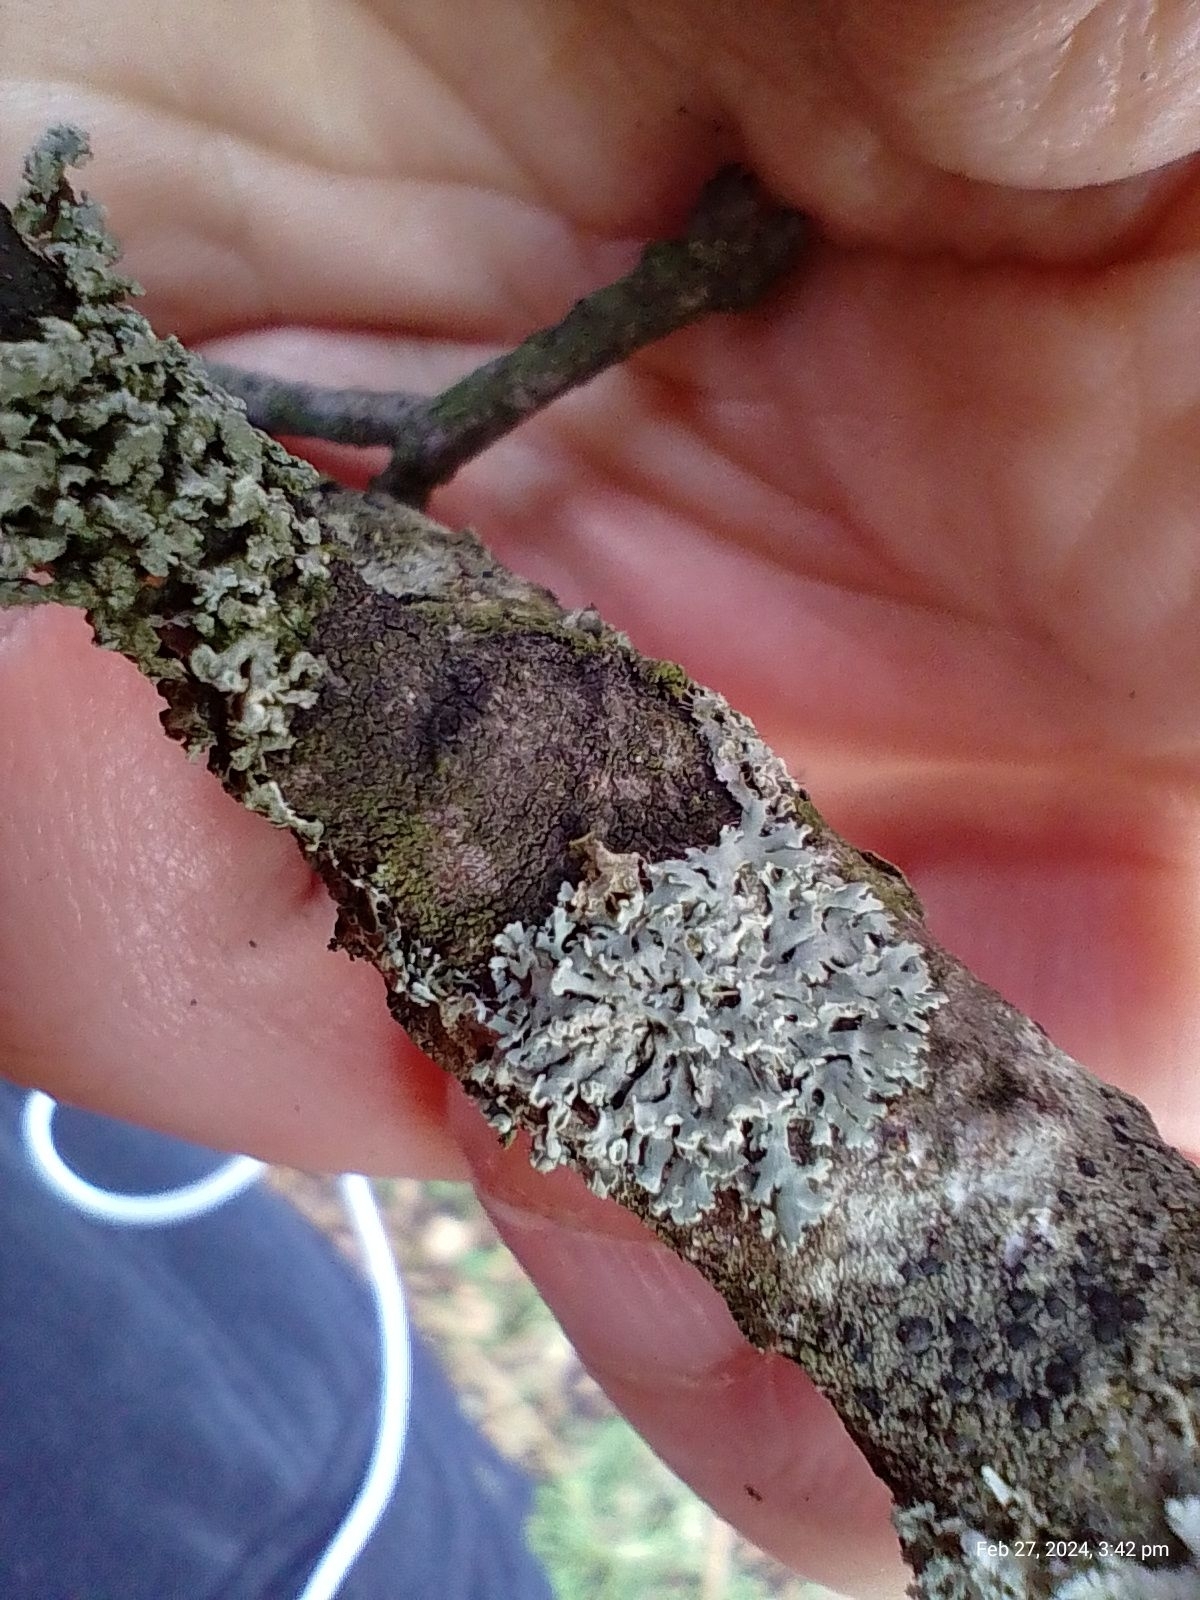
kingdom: Fungi
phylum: Ascomycota
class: Lecanoromycetes
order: Caliciales
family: Physciaceae
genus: Physcia
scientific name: Physcia tenella
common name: Fringed rosette lichen
